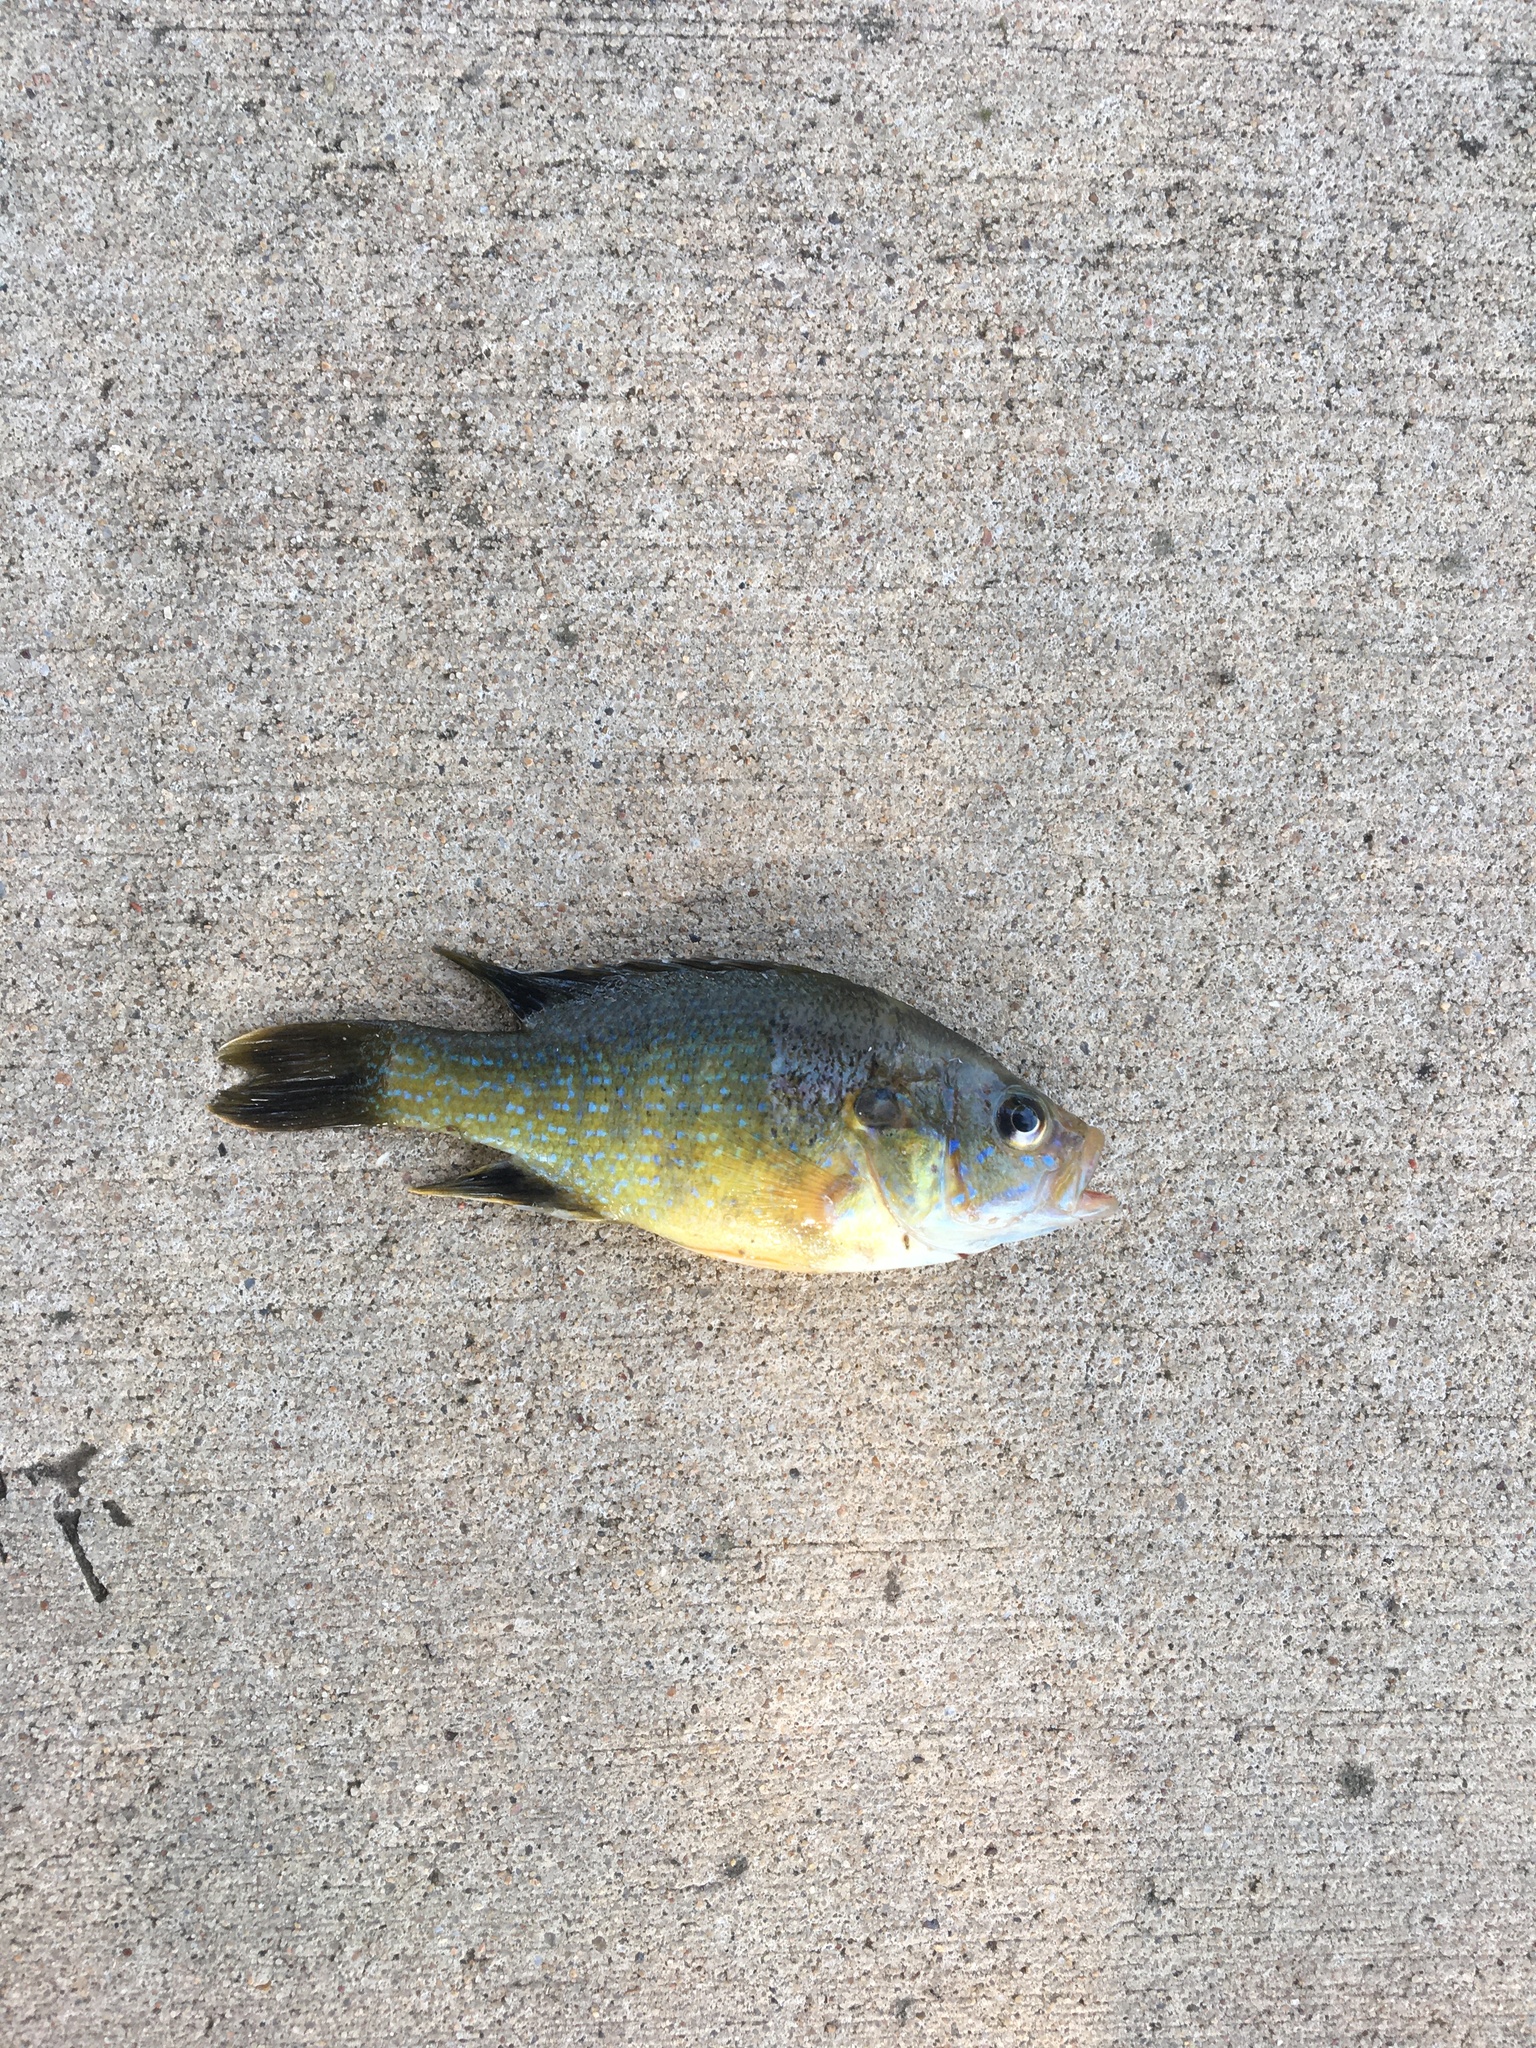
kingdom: Animalia
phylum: Chordata
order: Perciformes
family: Centrarchidae
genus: Lepomis
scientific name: Lepomis cyanellus
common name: Green sunfish
